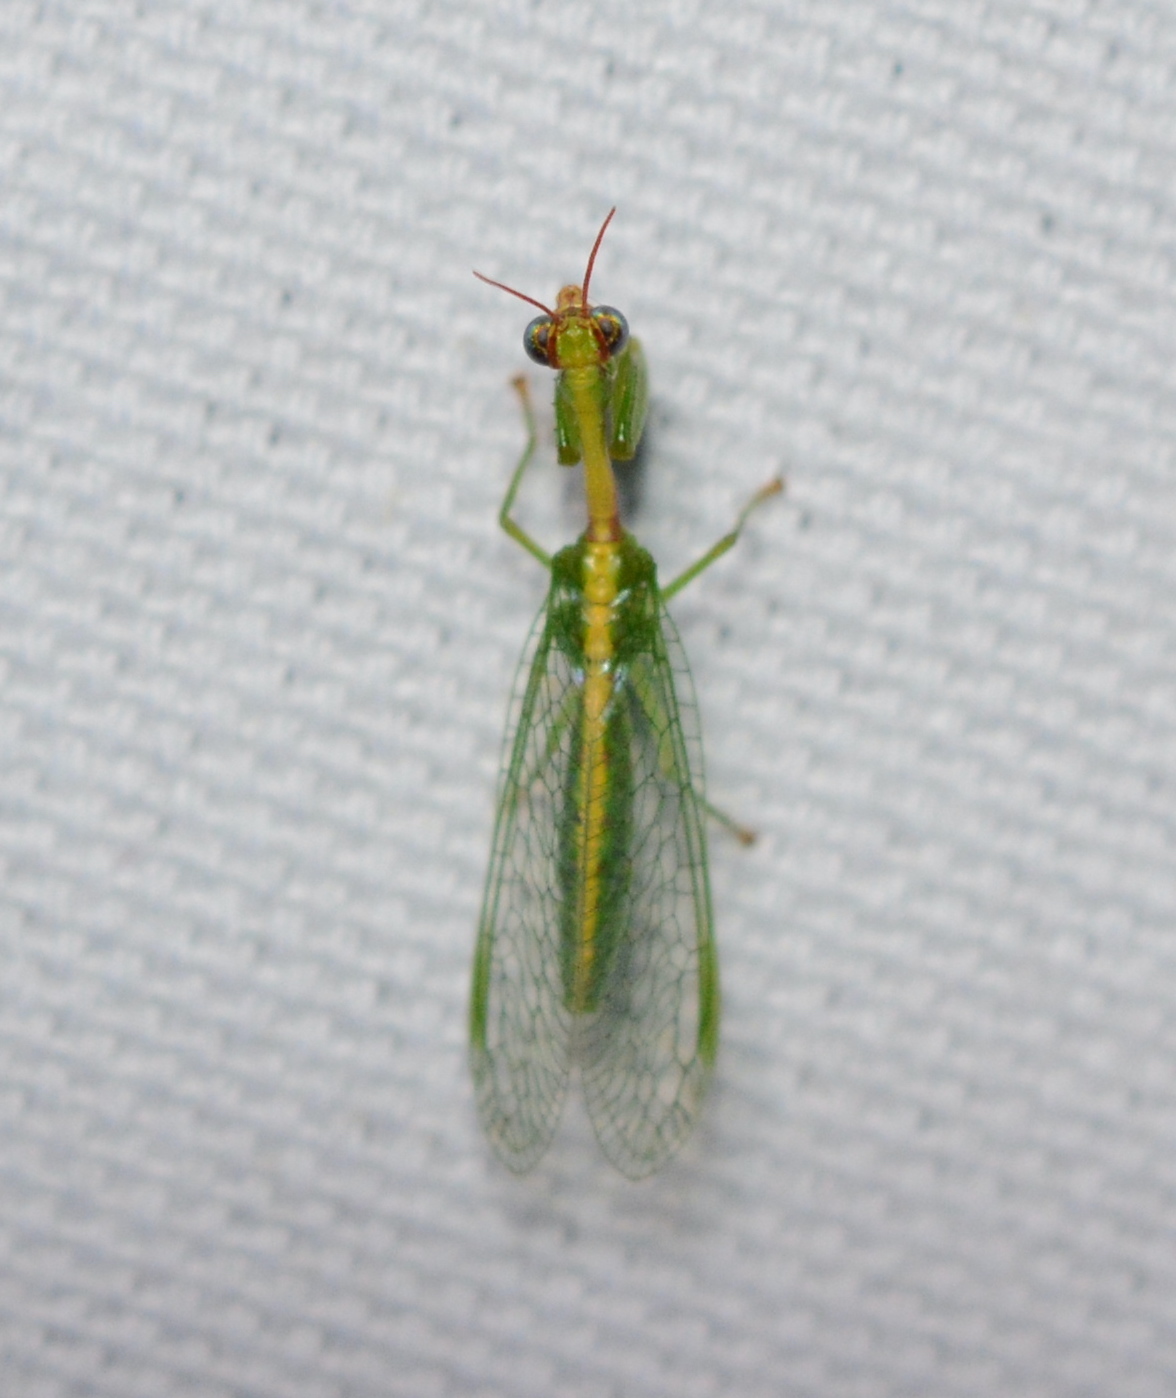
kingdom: Animalia
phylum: Arthropoda
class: Insecta
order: Neuroptera
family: Mantispidae
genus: Zeugomantispa
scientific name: Zeugomantispa minuta
